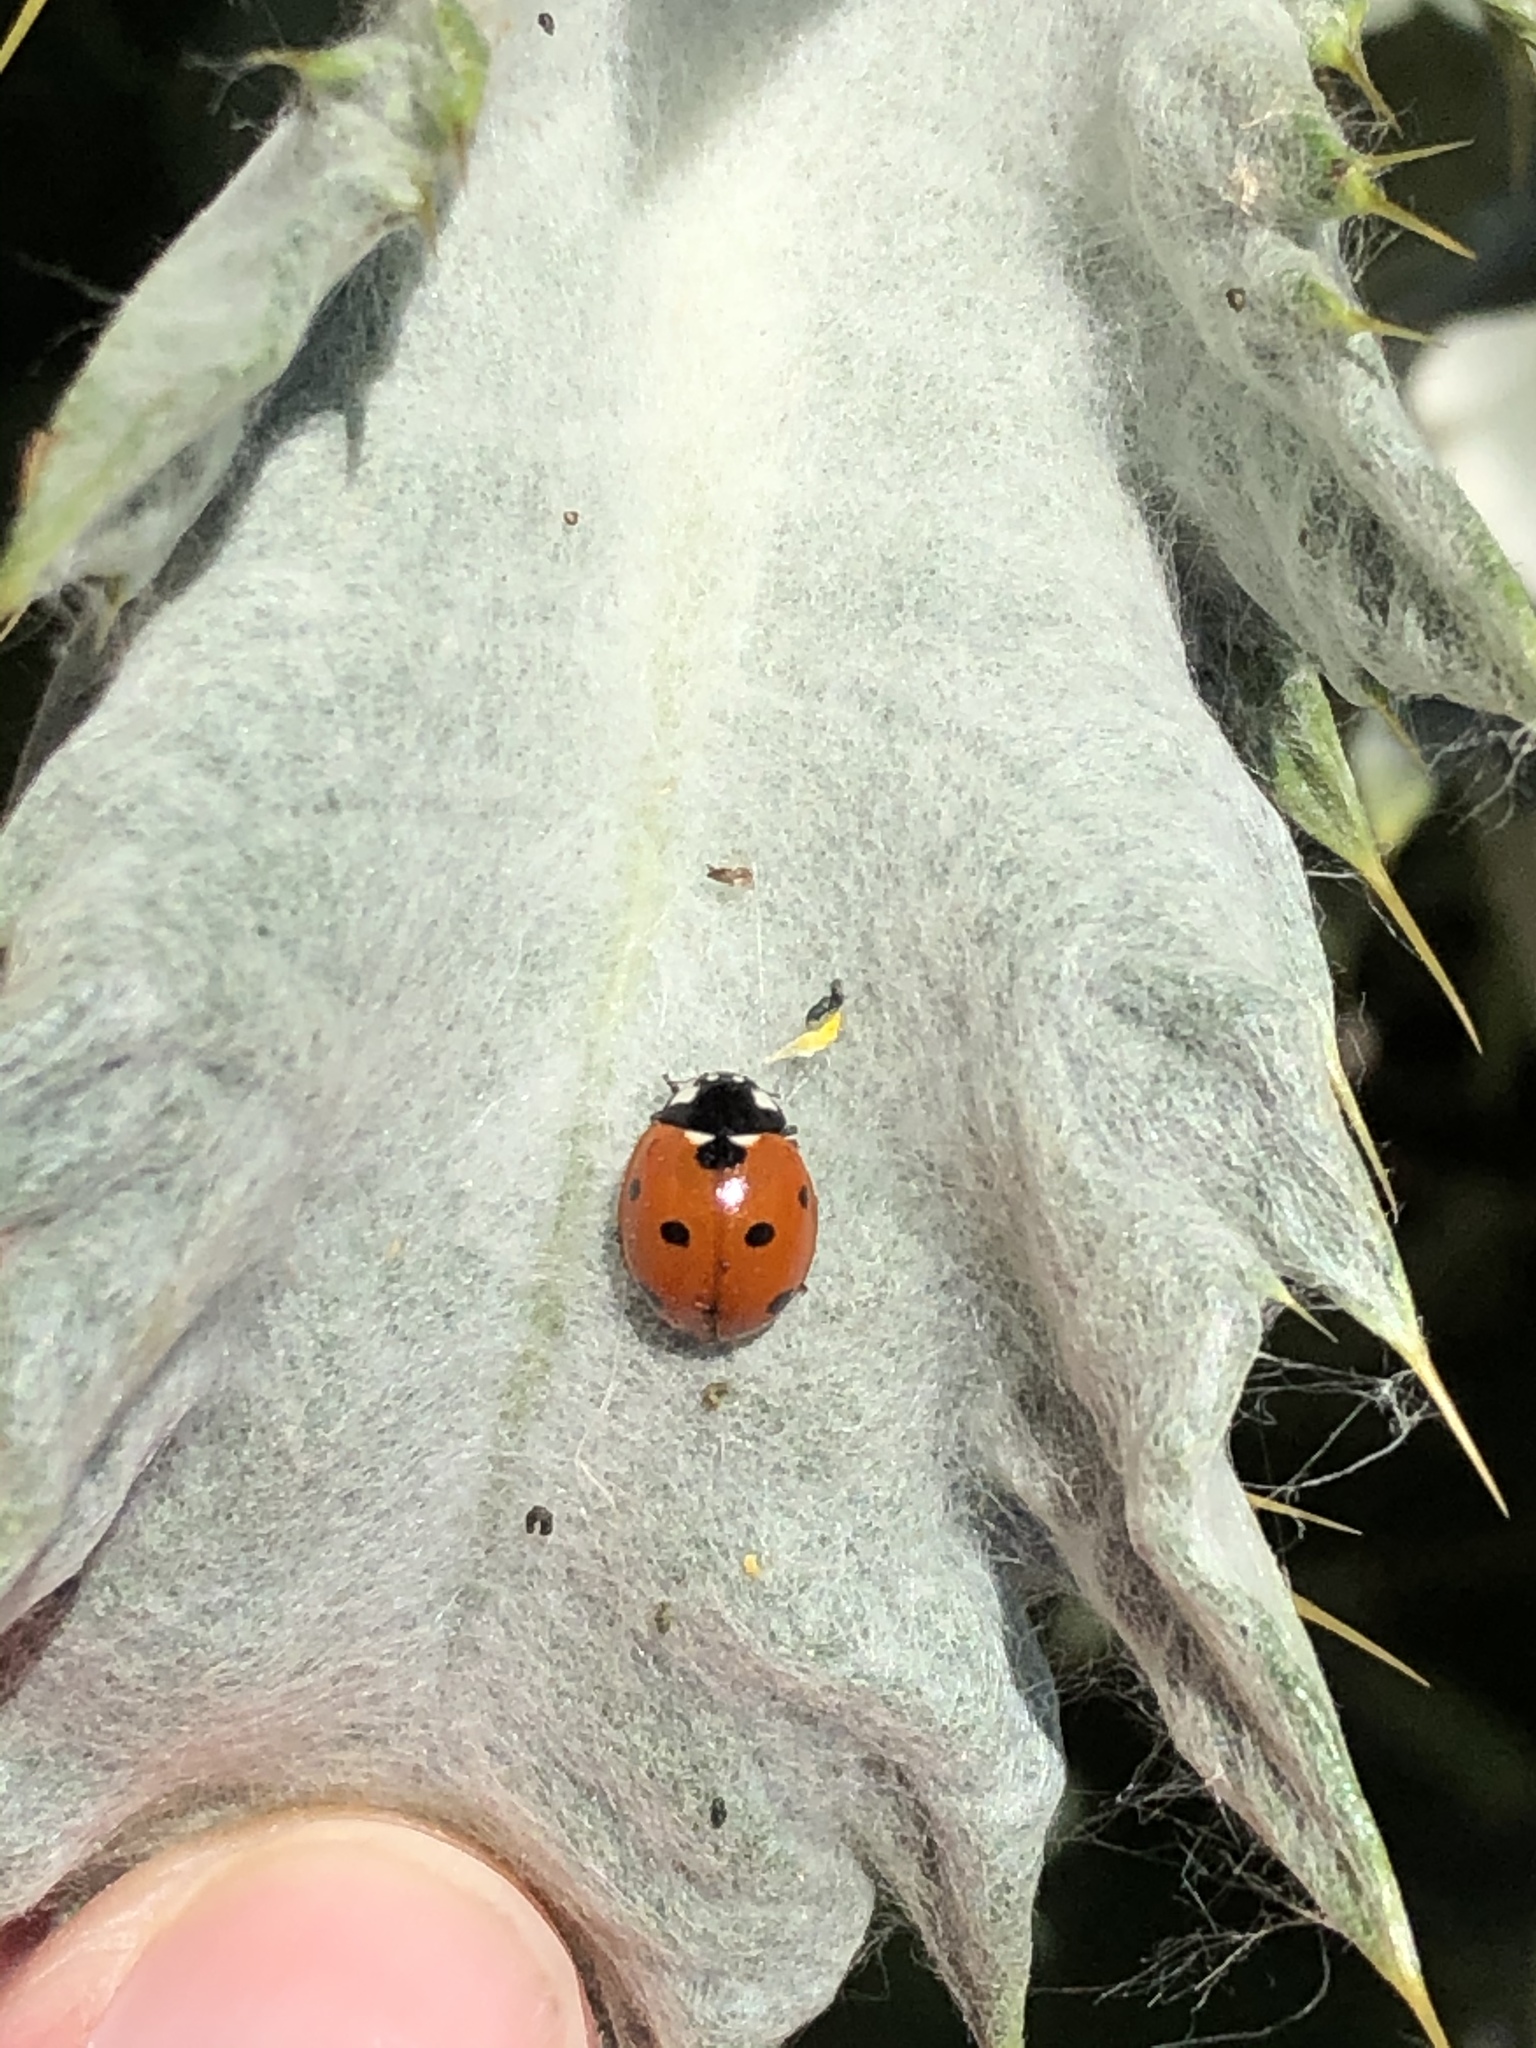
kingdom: Animalia
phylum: Arthropoda
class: Insecta
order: Coleoptera
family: Coccinellidae
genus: Coccinella
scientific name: Coccinella septempunctata
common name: Sevenspotted lady beetle
